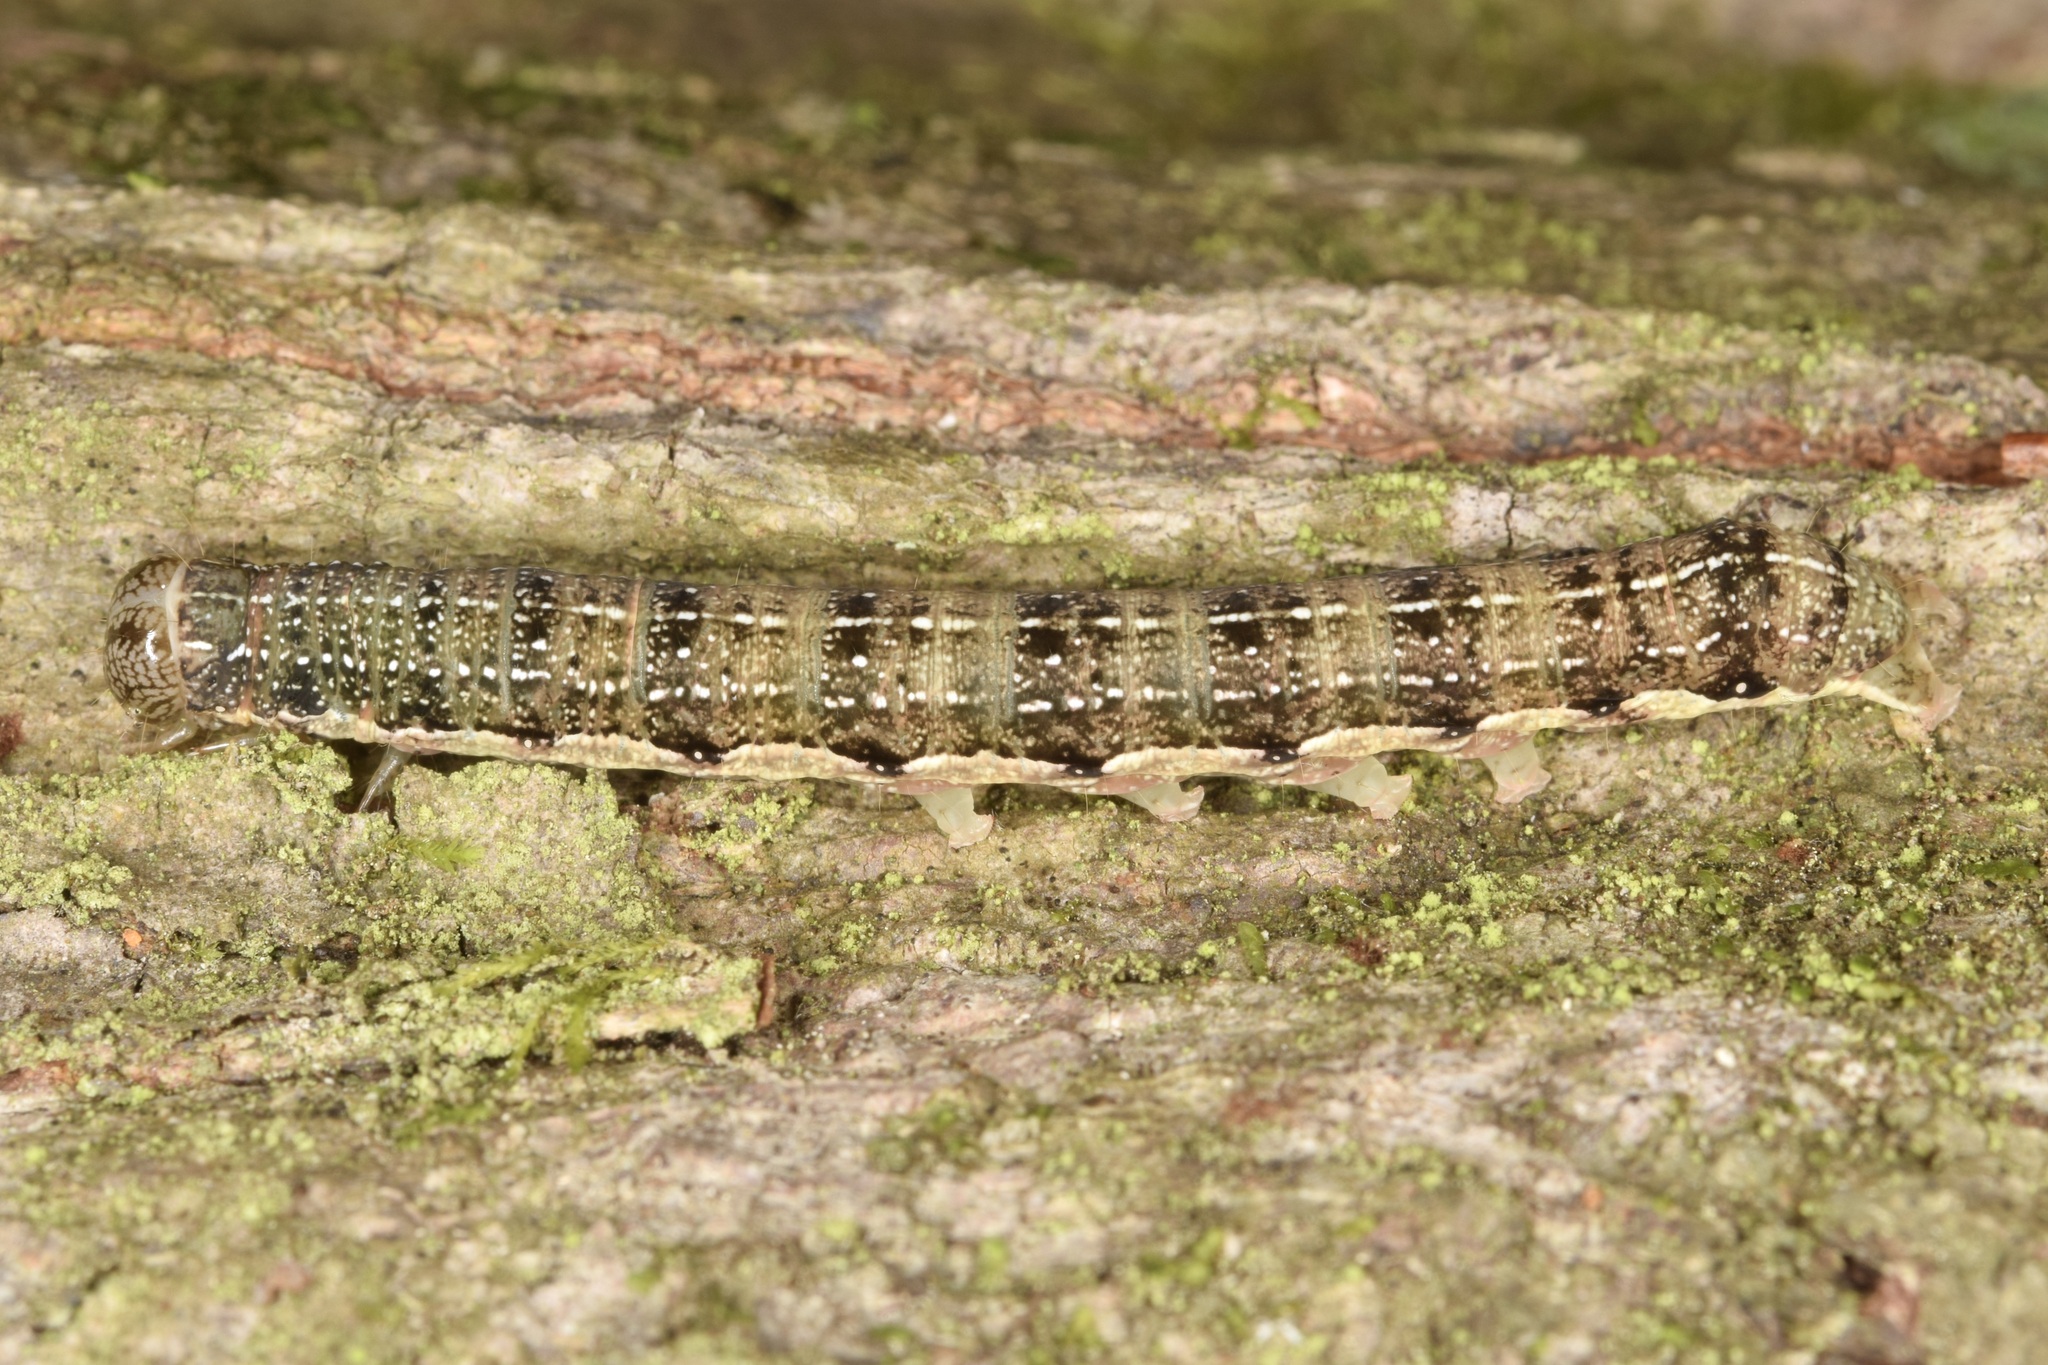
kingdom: Animalia
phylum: Arthropoda
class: Insecta
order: Lepidoptera
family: Noctuidae
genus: Orthosia
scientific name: Orthosia rubescens
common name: Ruby quaker
